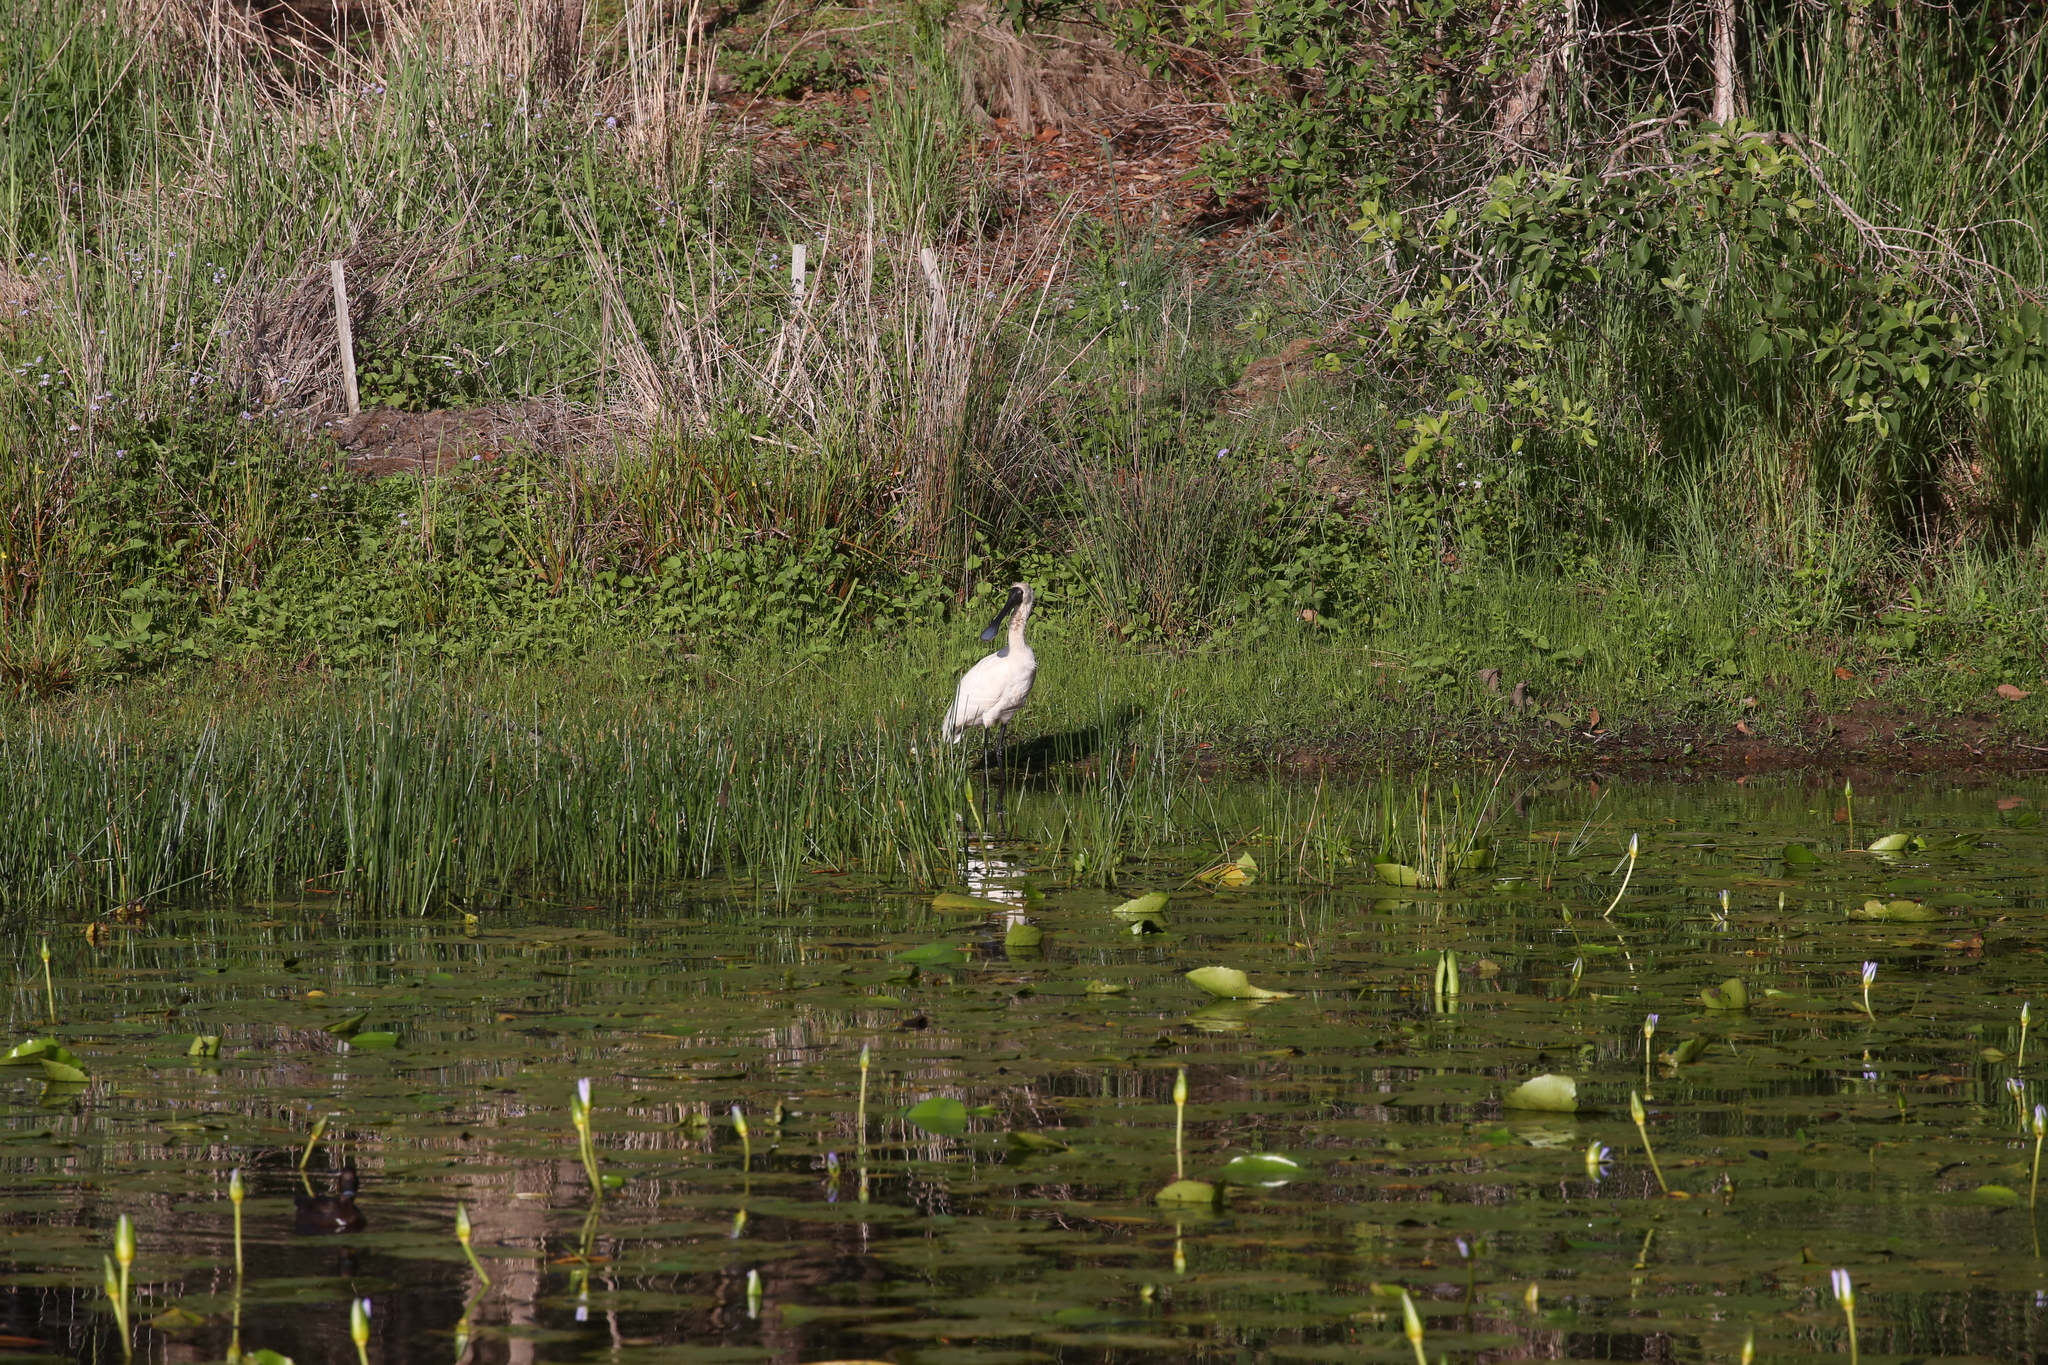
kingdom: Animalia
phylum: Chordata
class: Aves
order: Pelecaniformes
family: Threskiornithidae
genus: Platalea
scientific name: Platalea regia
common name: Royal spoonbill
